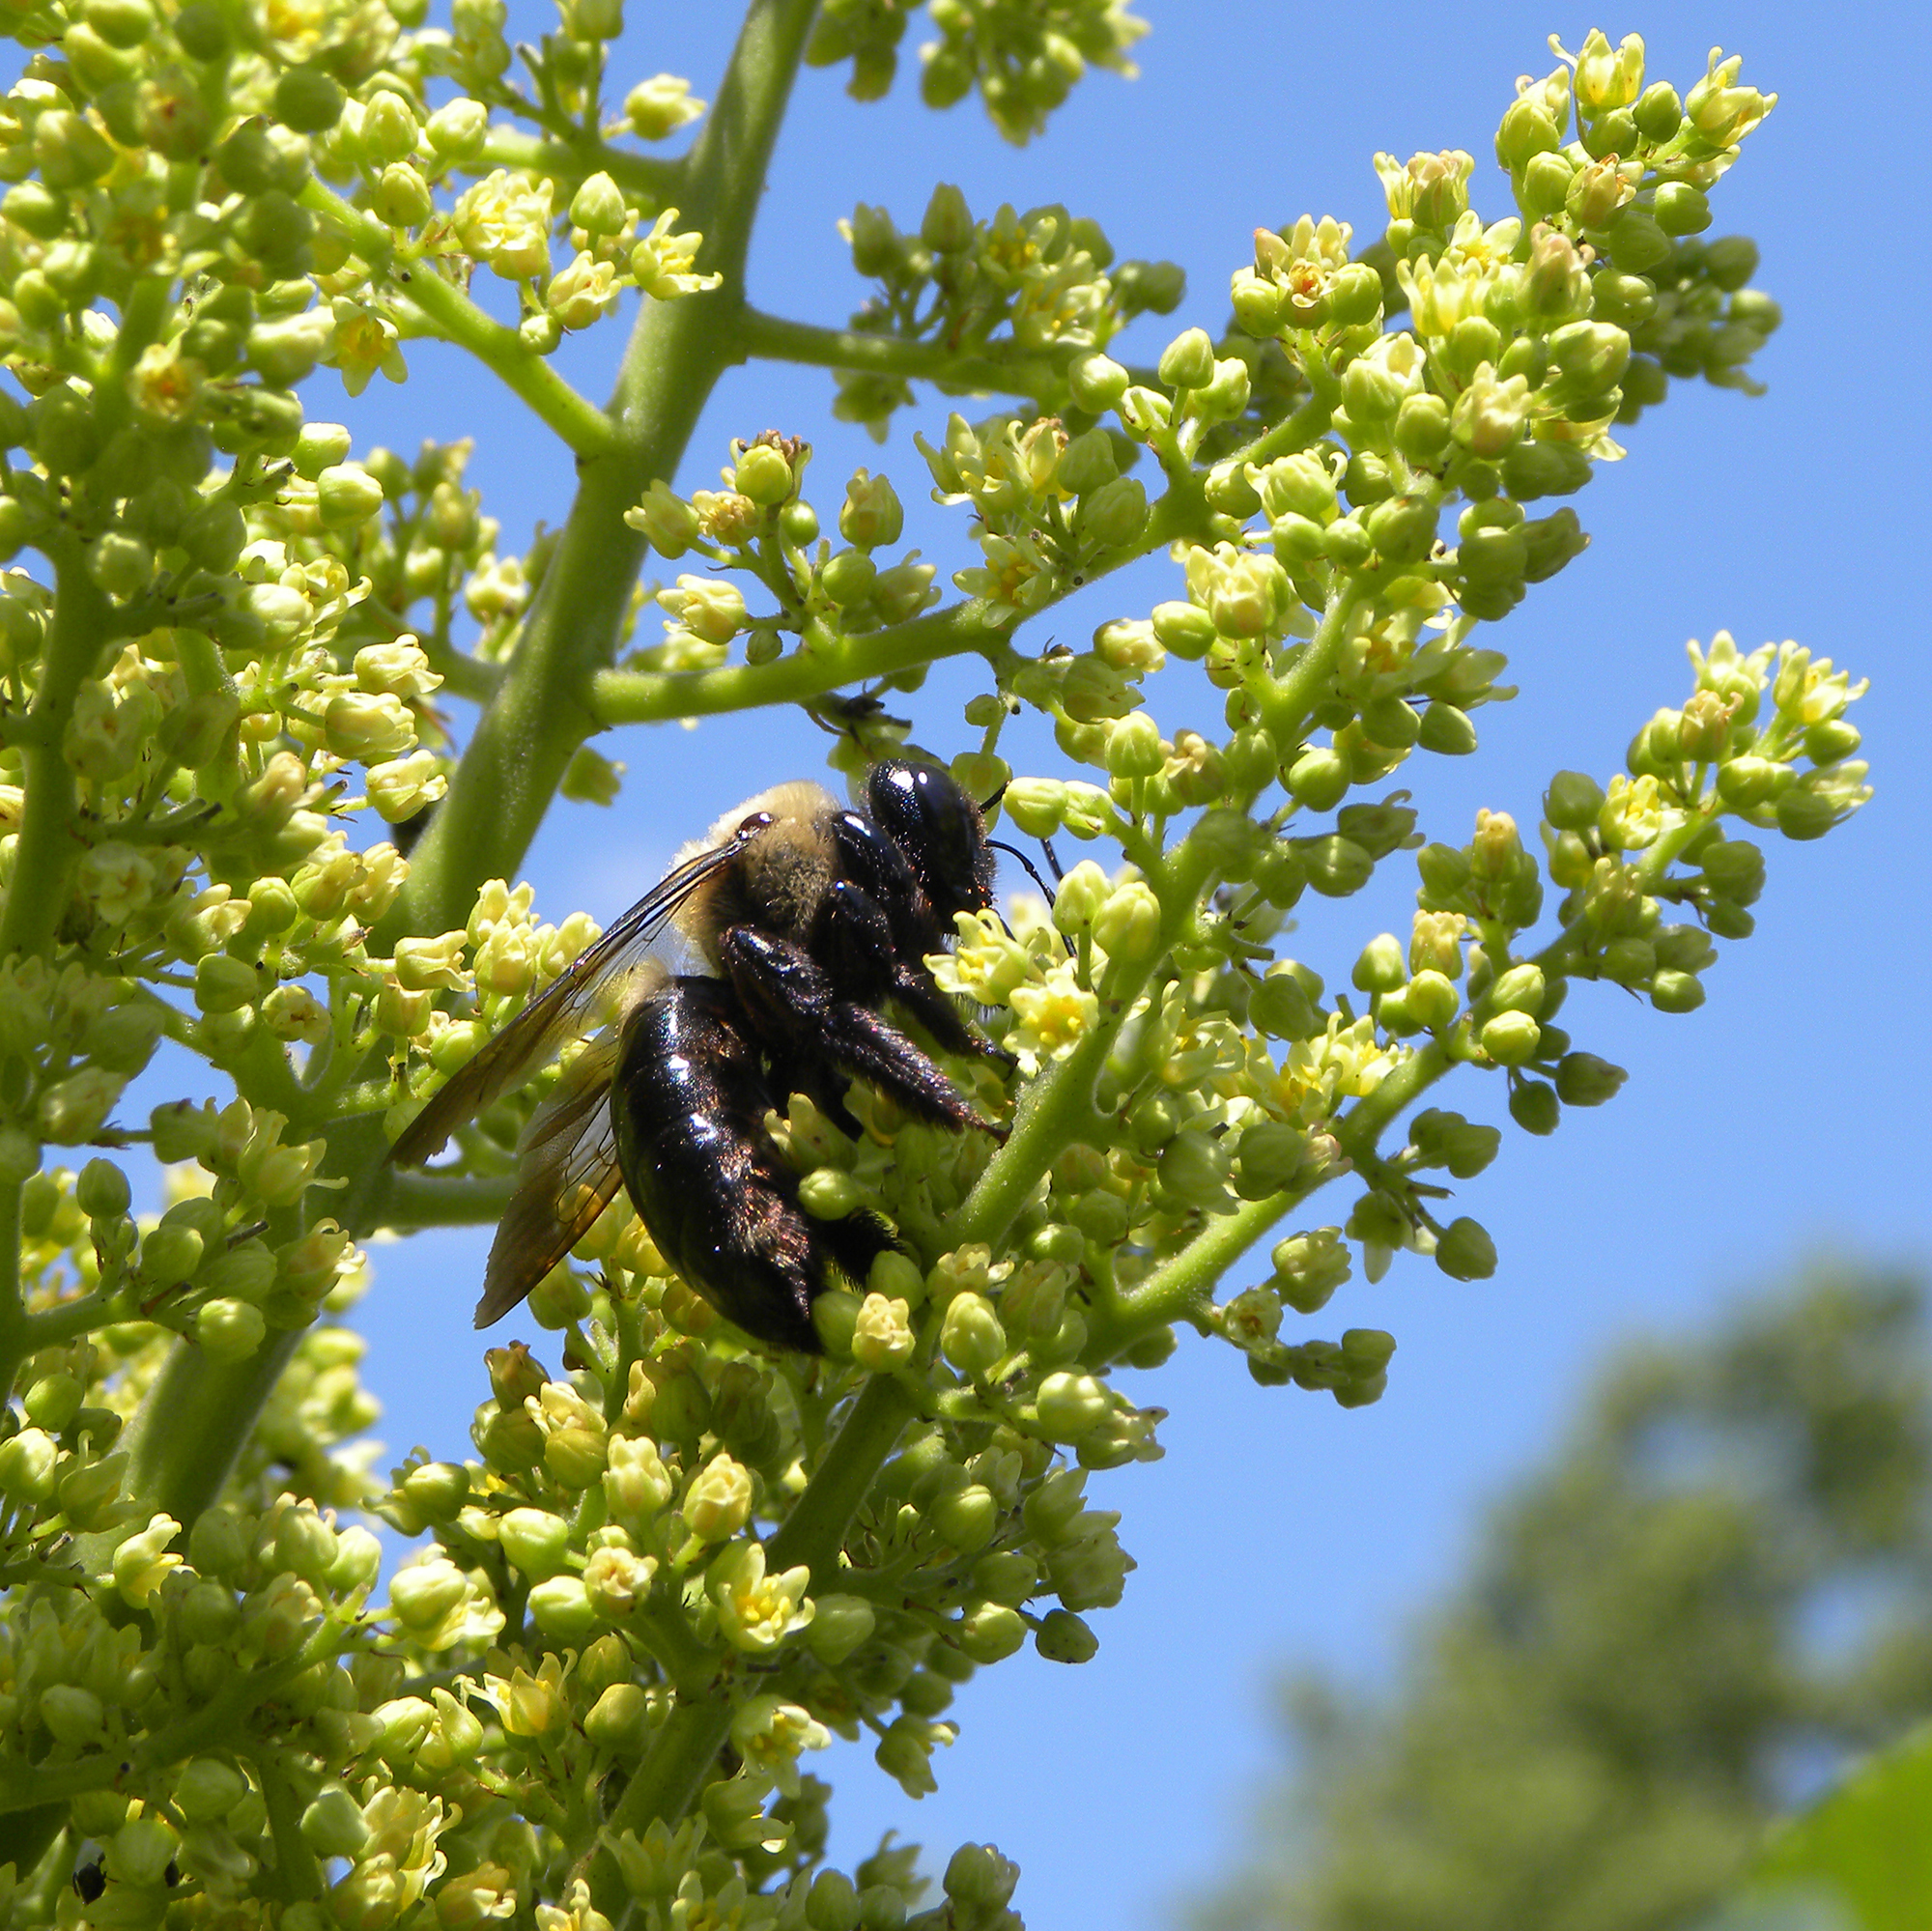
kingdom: Animalia
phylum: Arthropoda
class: Insecta
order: Hymenoptera
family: Apidae
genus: Xylocopa
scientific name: Xylocopa virginica
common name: Carpenter bee
